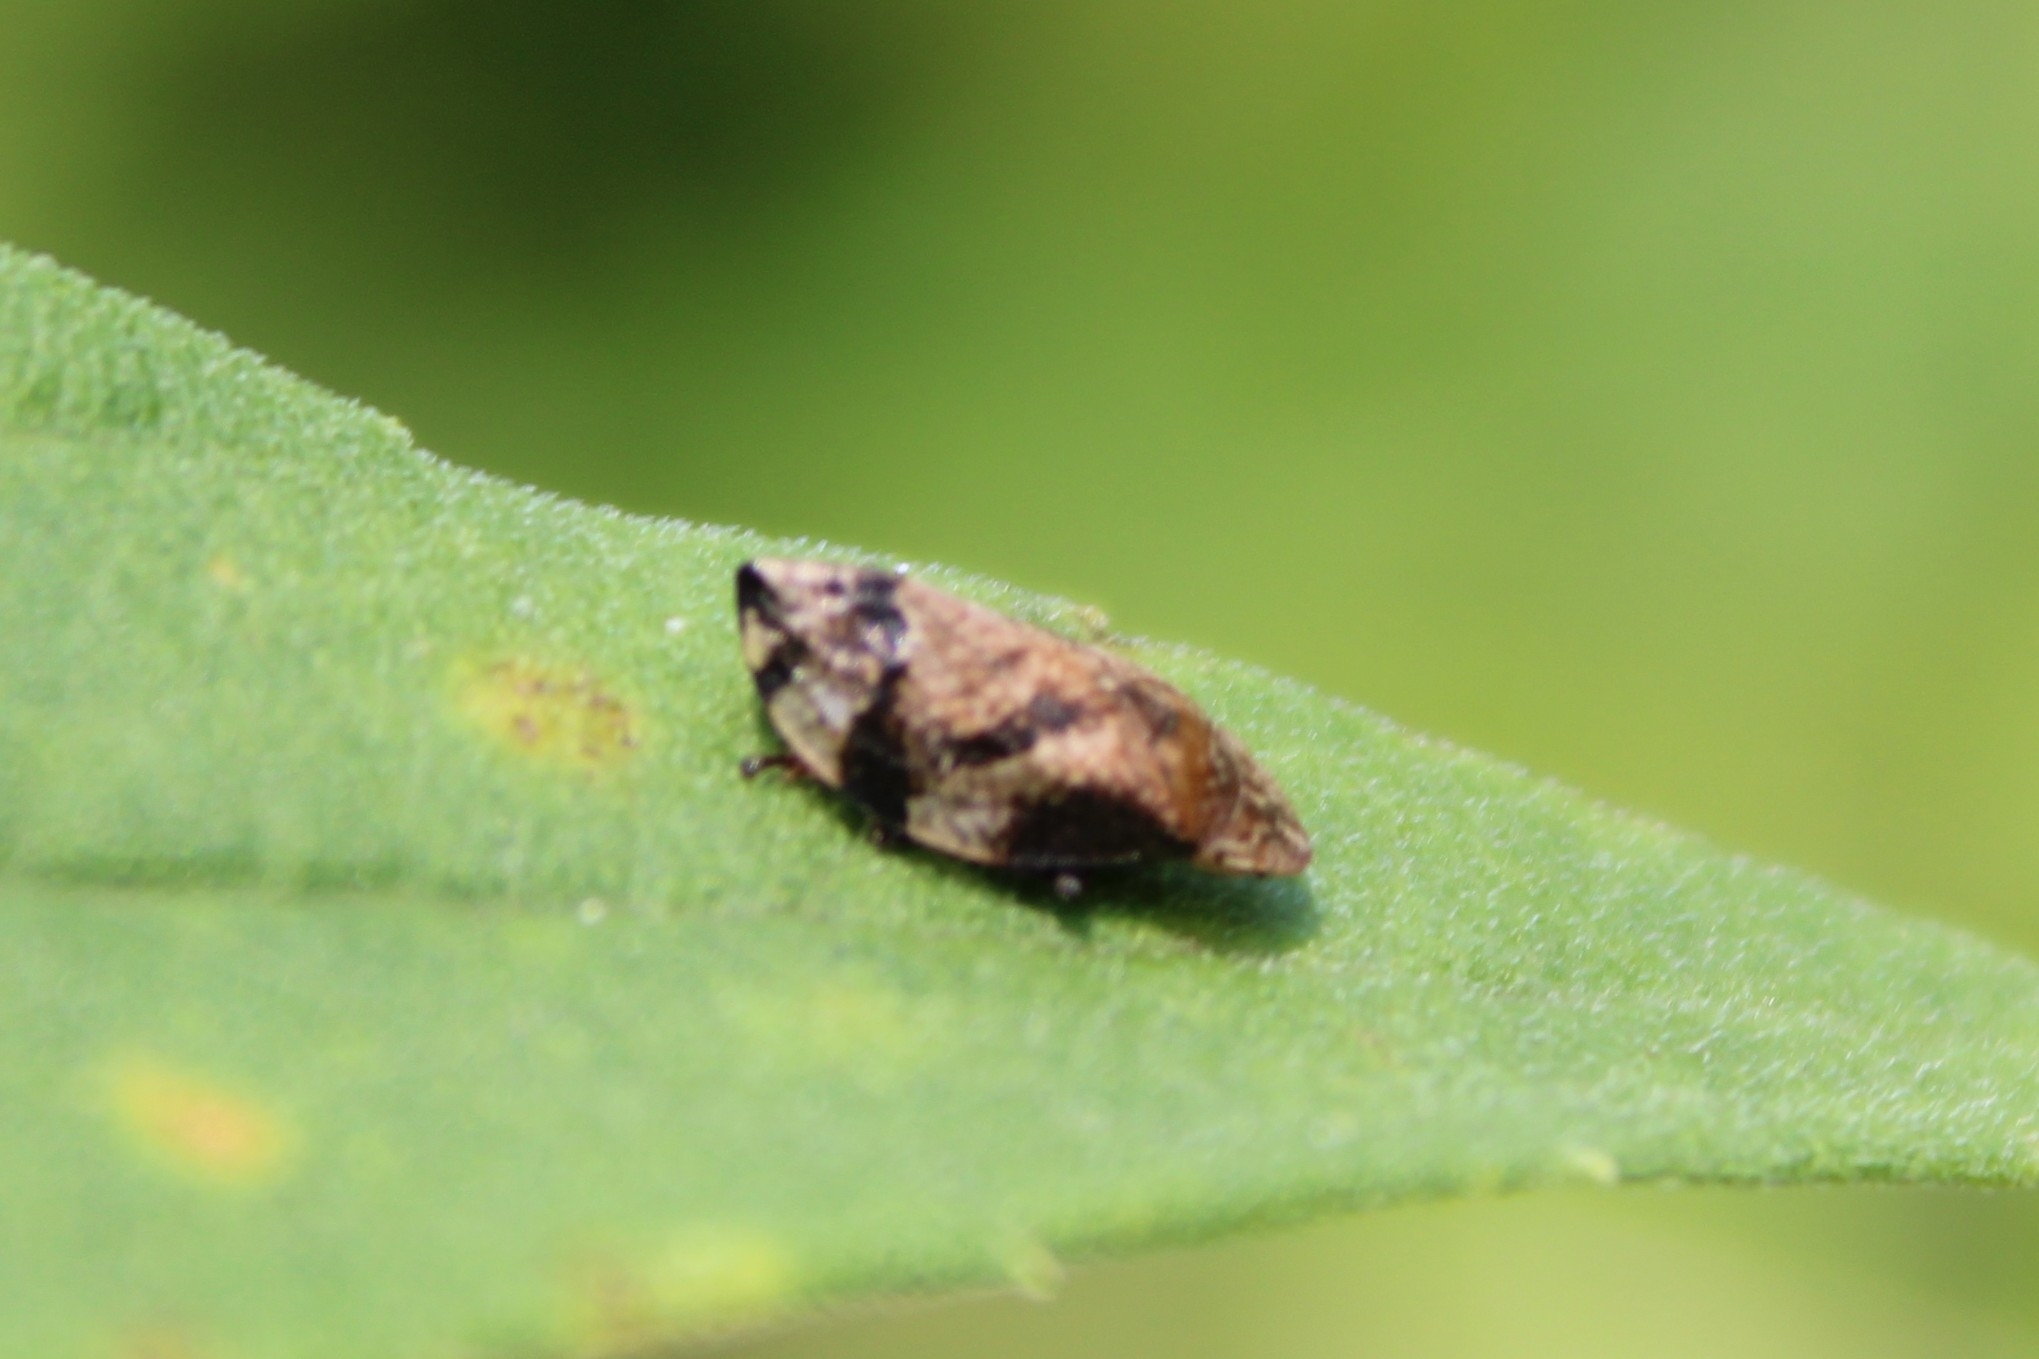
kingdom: Animalia
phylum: Arthropoda
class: Insecta
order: Hemiptera
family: Aphrophoridae
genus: Lepyronia
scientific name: Lepyronia quadrangularis
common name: Diamond-backed spittlebug
